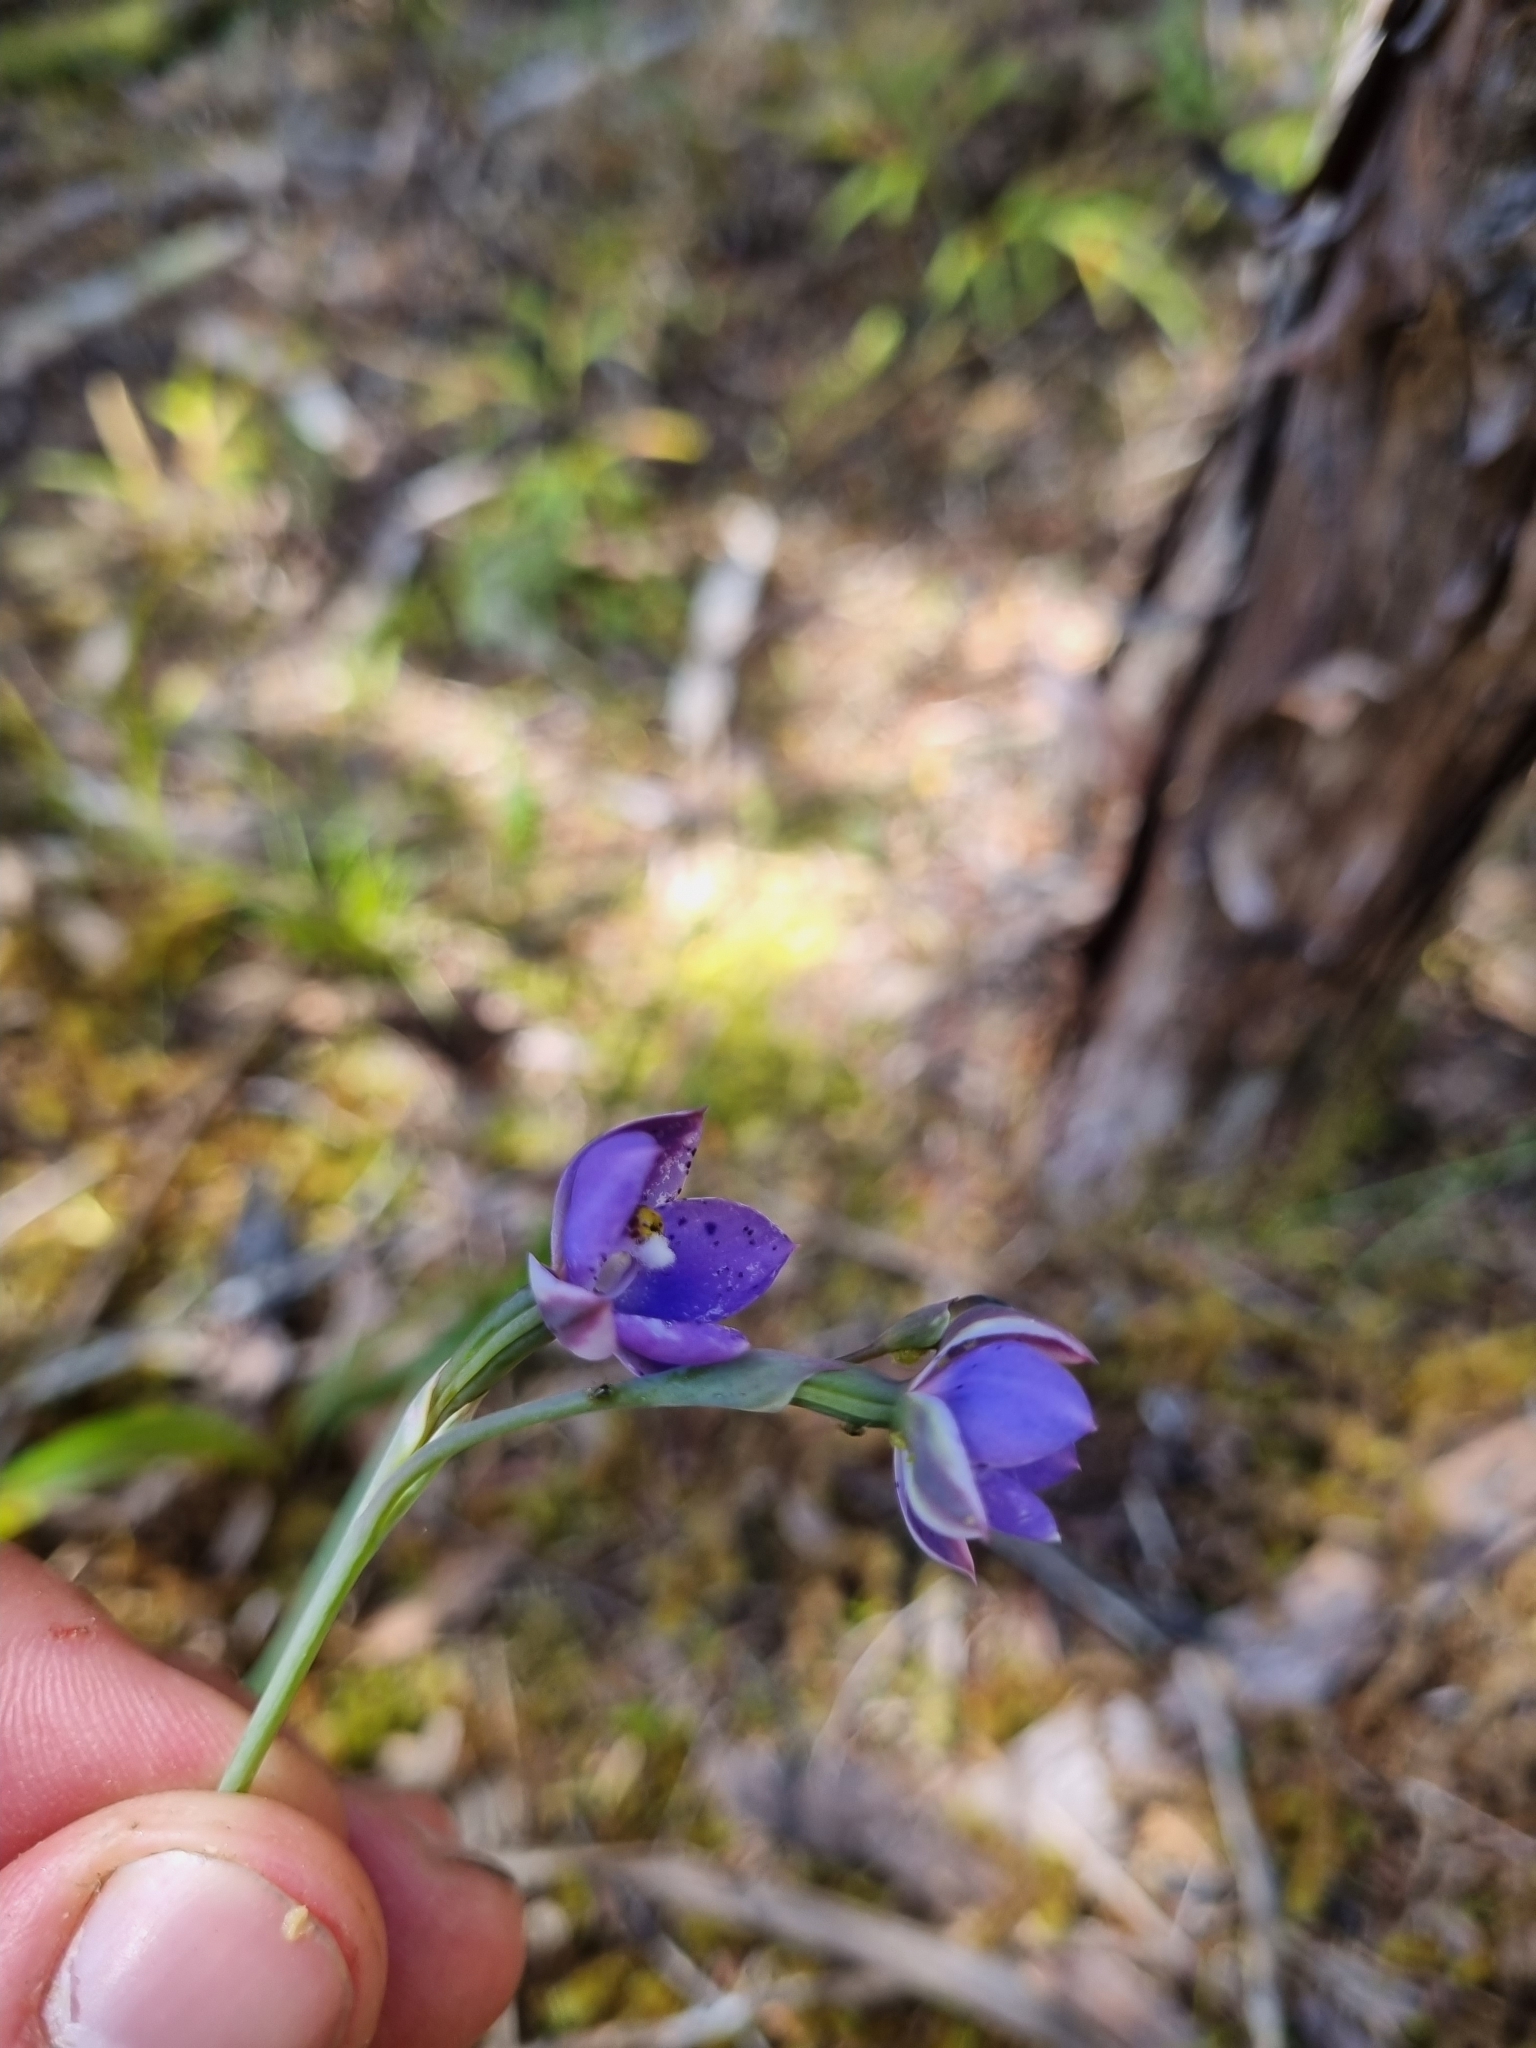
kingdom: Plantae
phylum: Tracheophyta
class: Liliopsida
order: Asparagales
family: Orchidaceae
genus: Thelymitra
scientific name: Thelymitra nervosa
